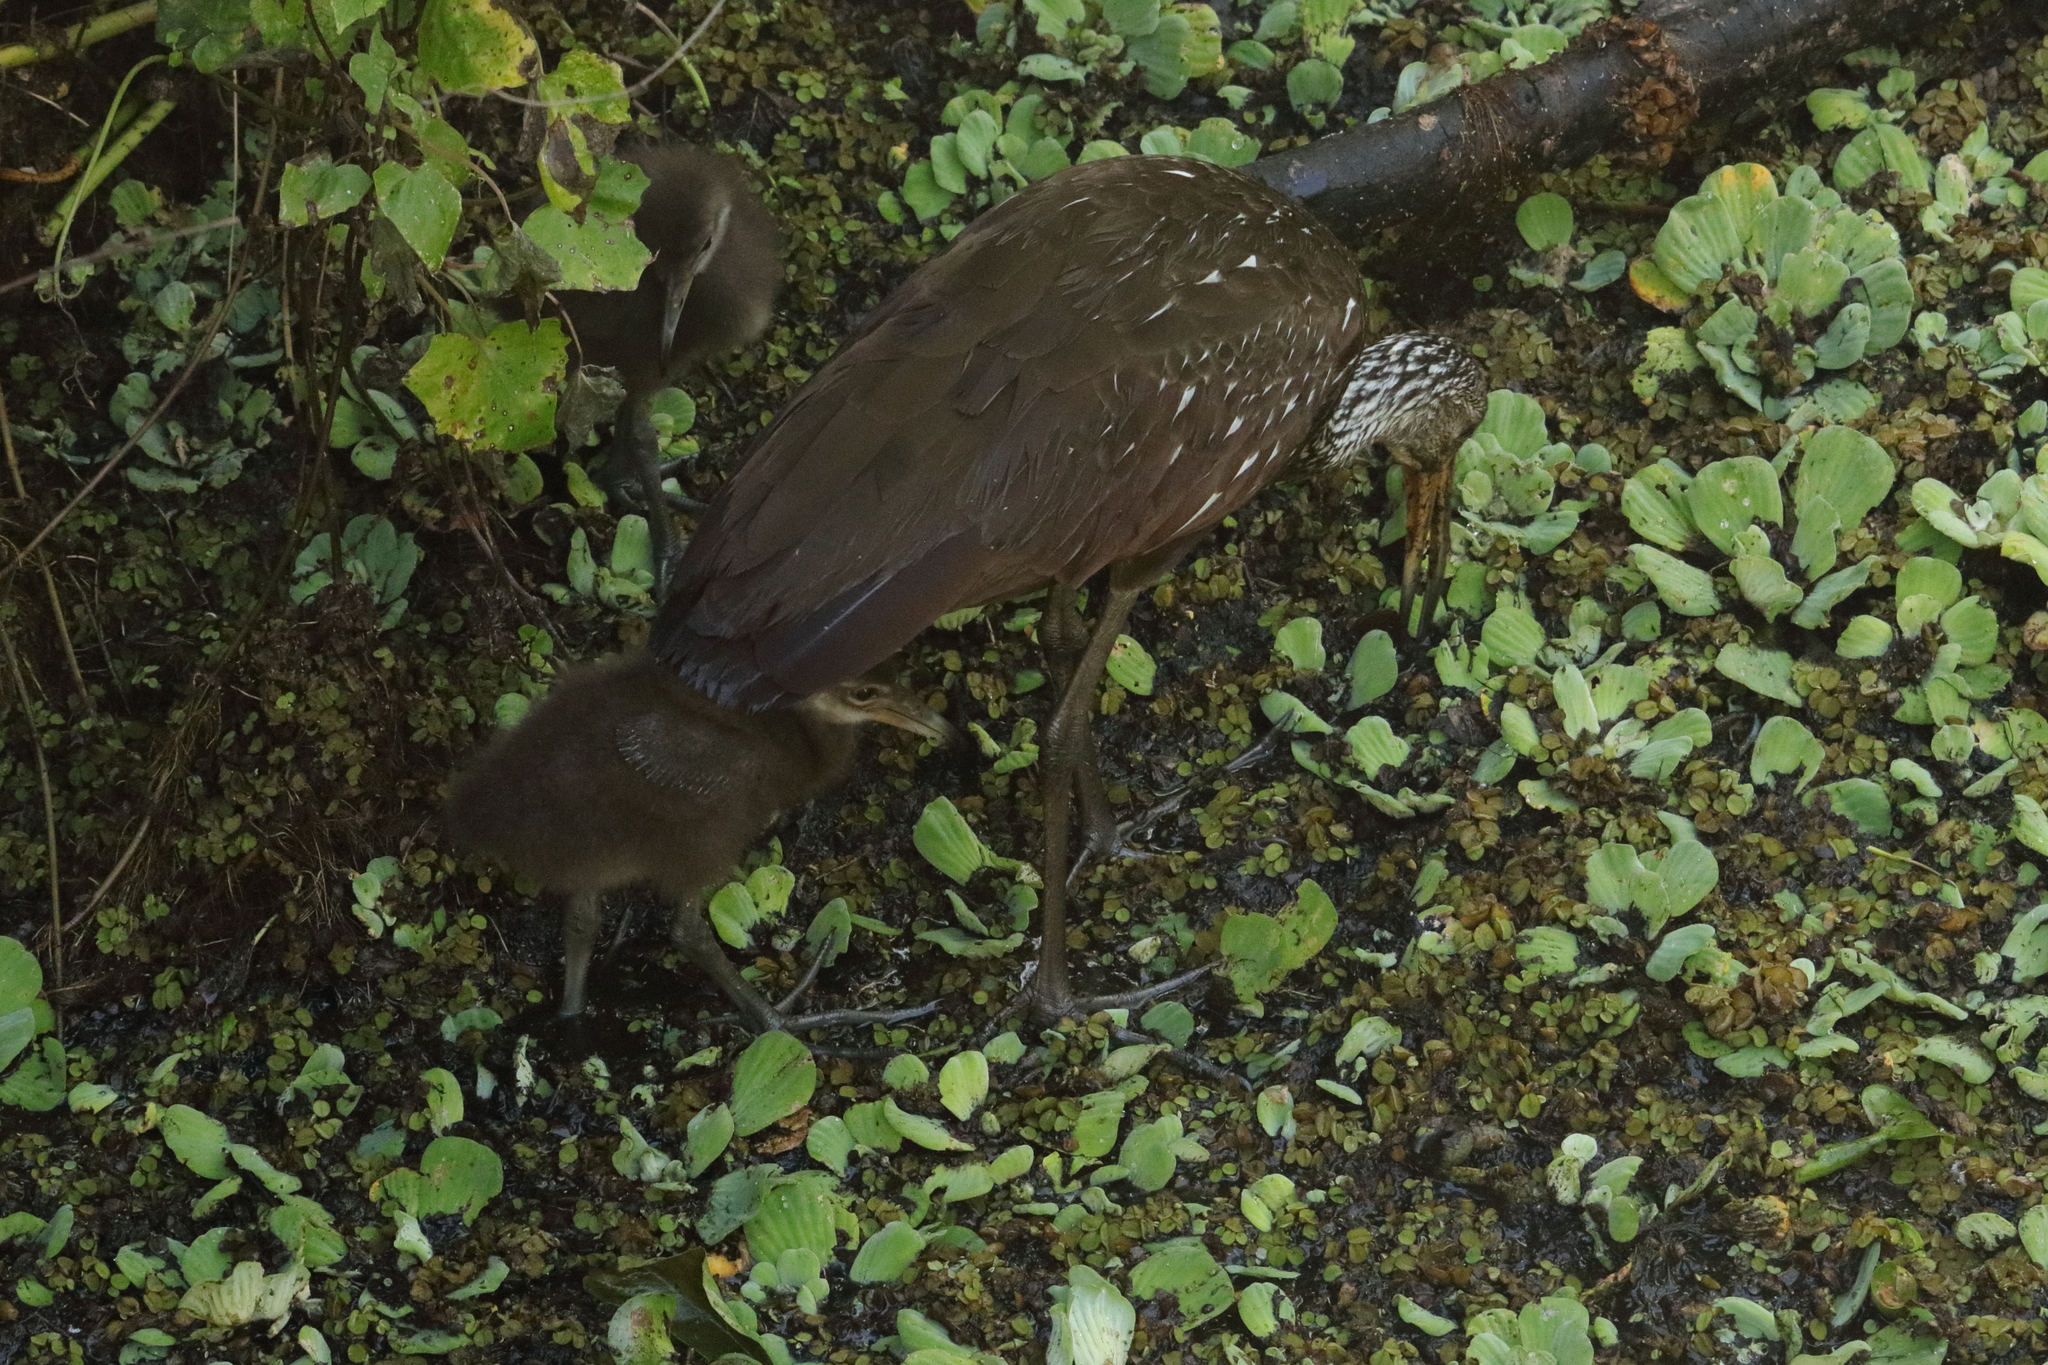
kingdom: Animalia
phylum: Chordata
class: Aves
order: Gruiformes
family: Aramidae
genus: Aramus
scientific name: Aramus guarauna
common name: Limpkin
